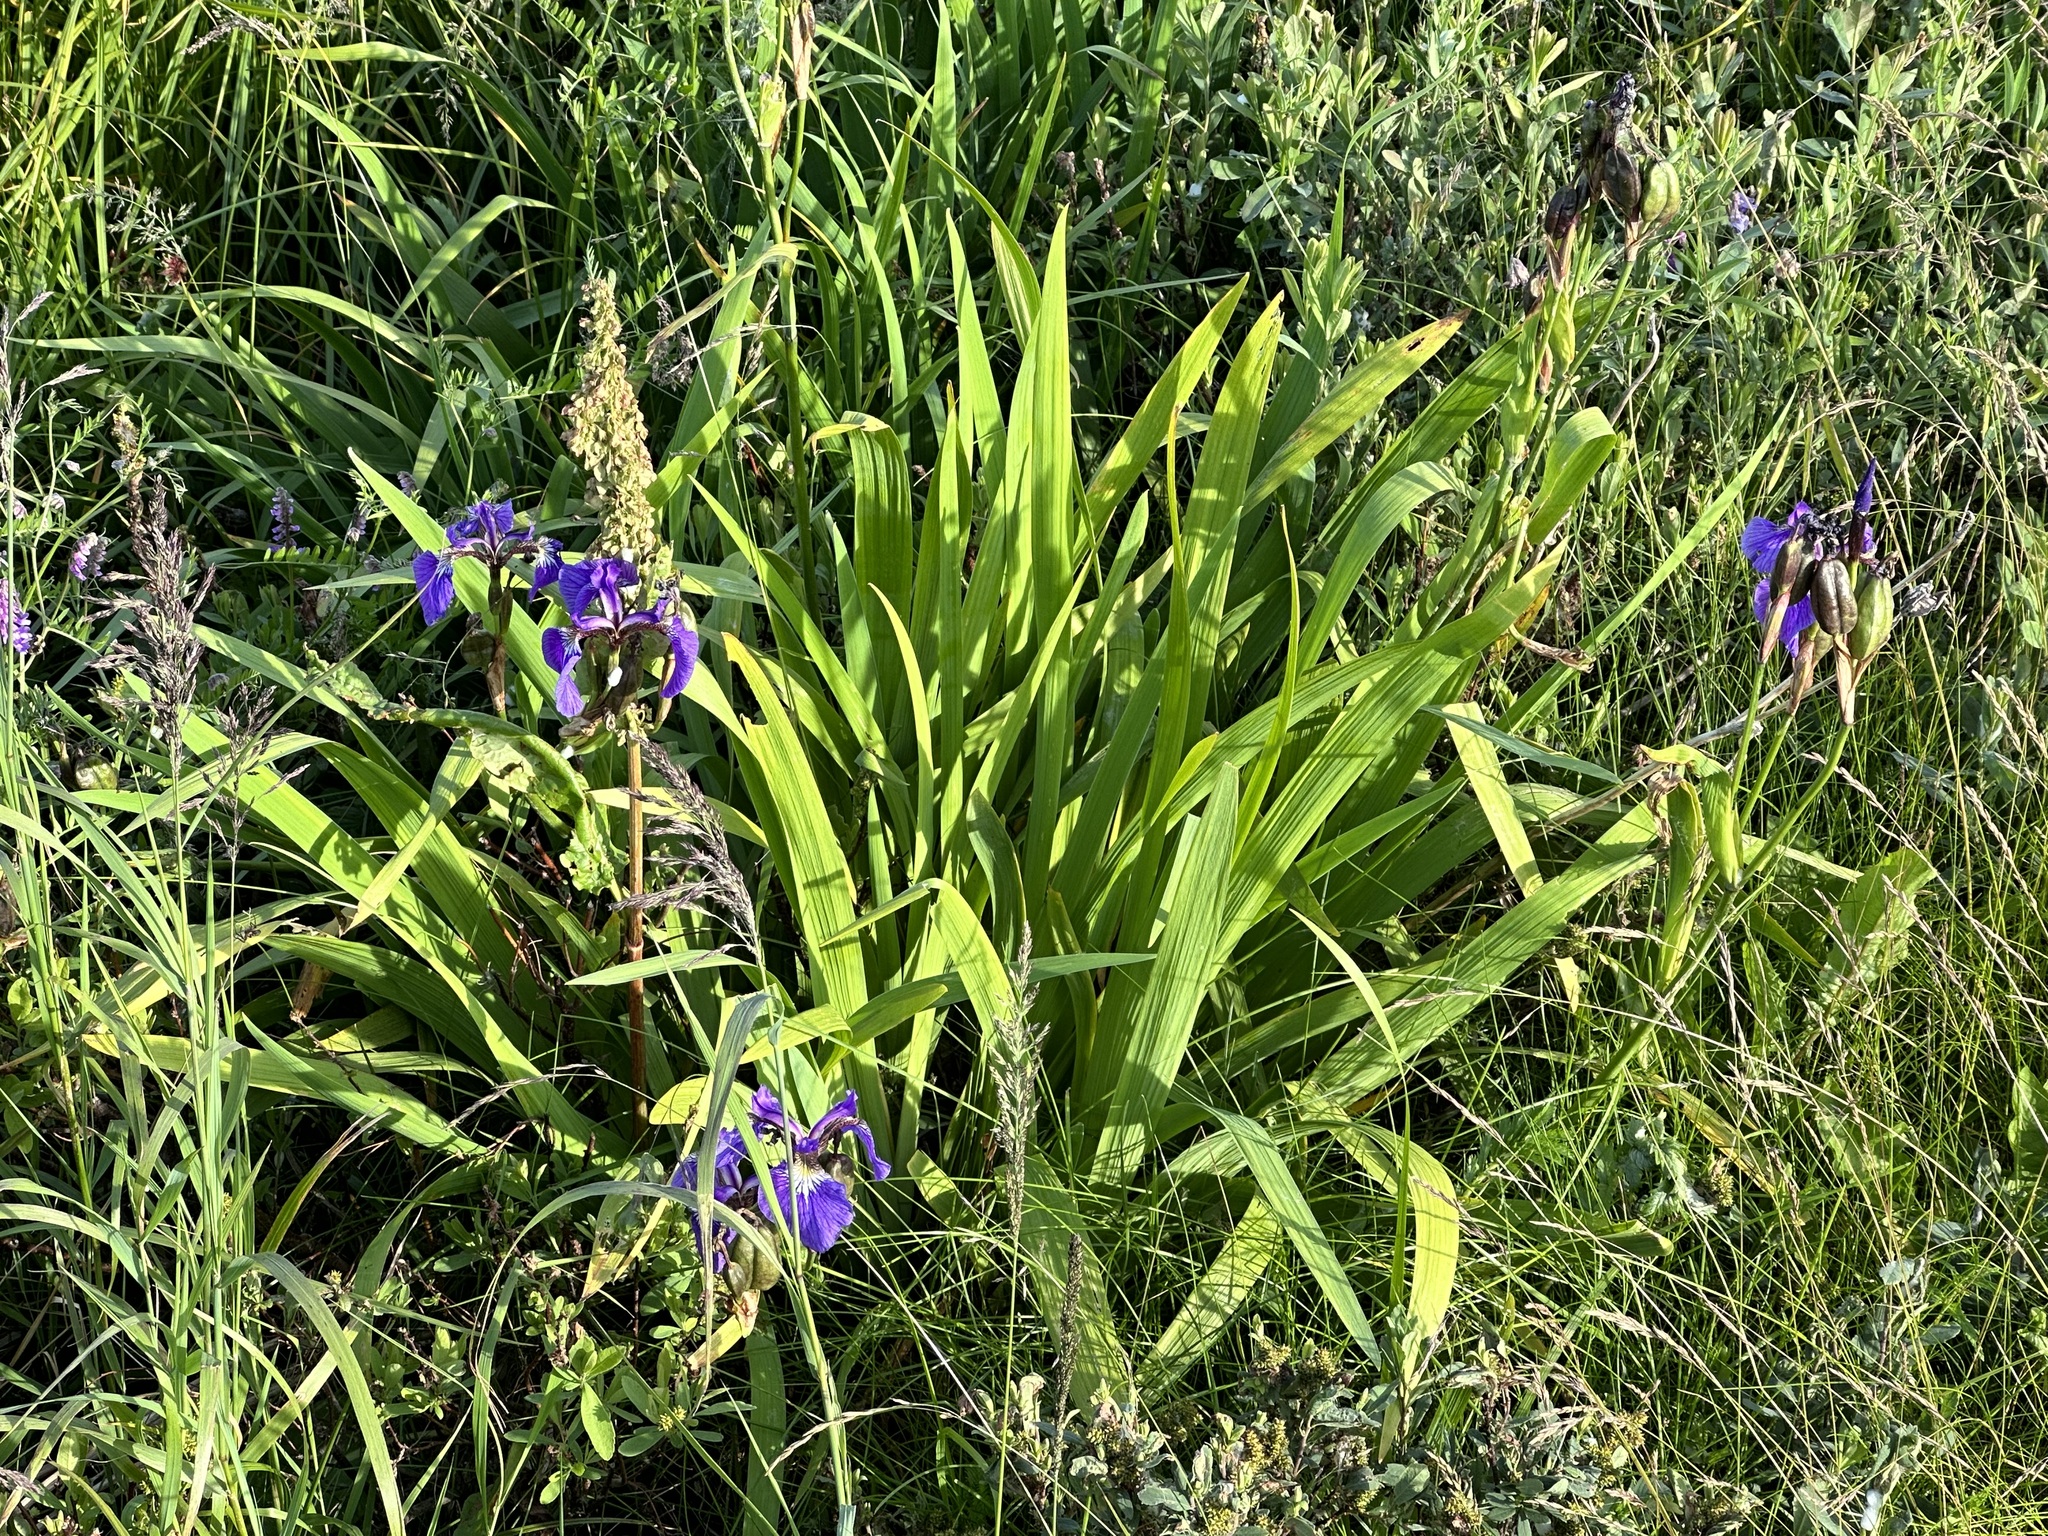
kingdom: Plantae
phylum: Tracheophyta
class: Liliopsida
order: Asparagales
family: Iridaceae
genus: Iris
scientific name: Iris setosa
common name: Arctic blue flag
